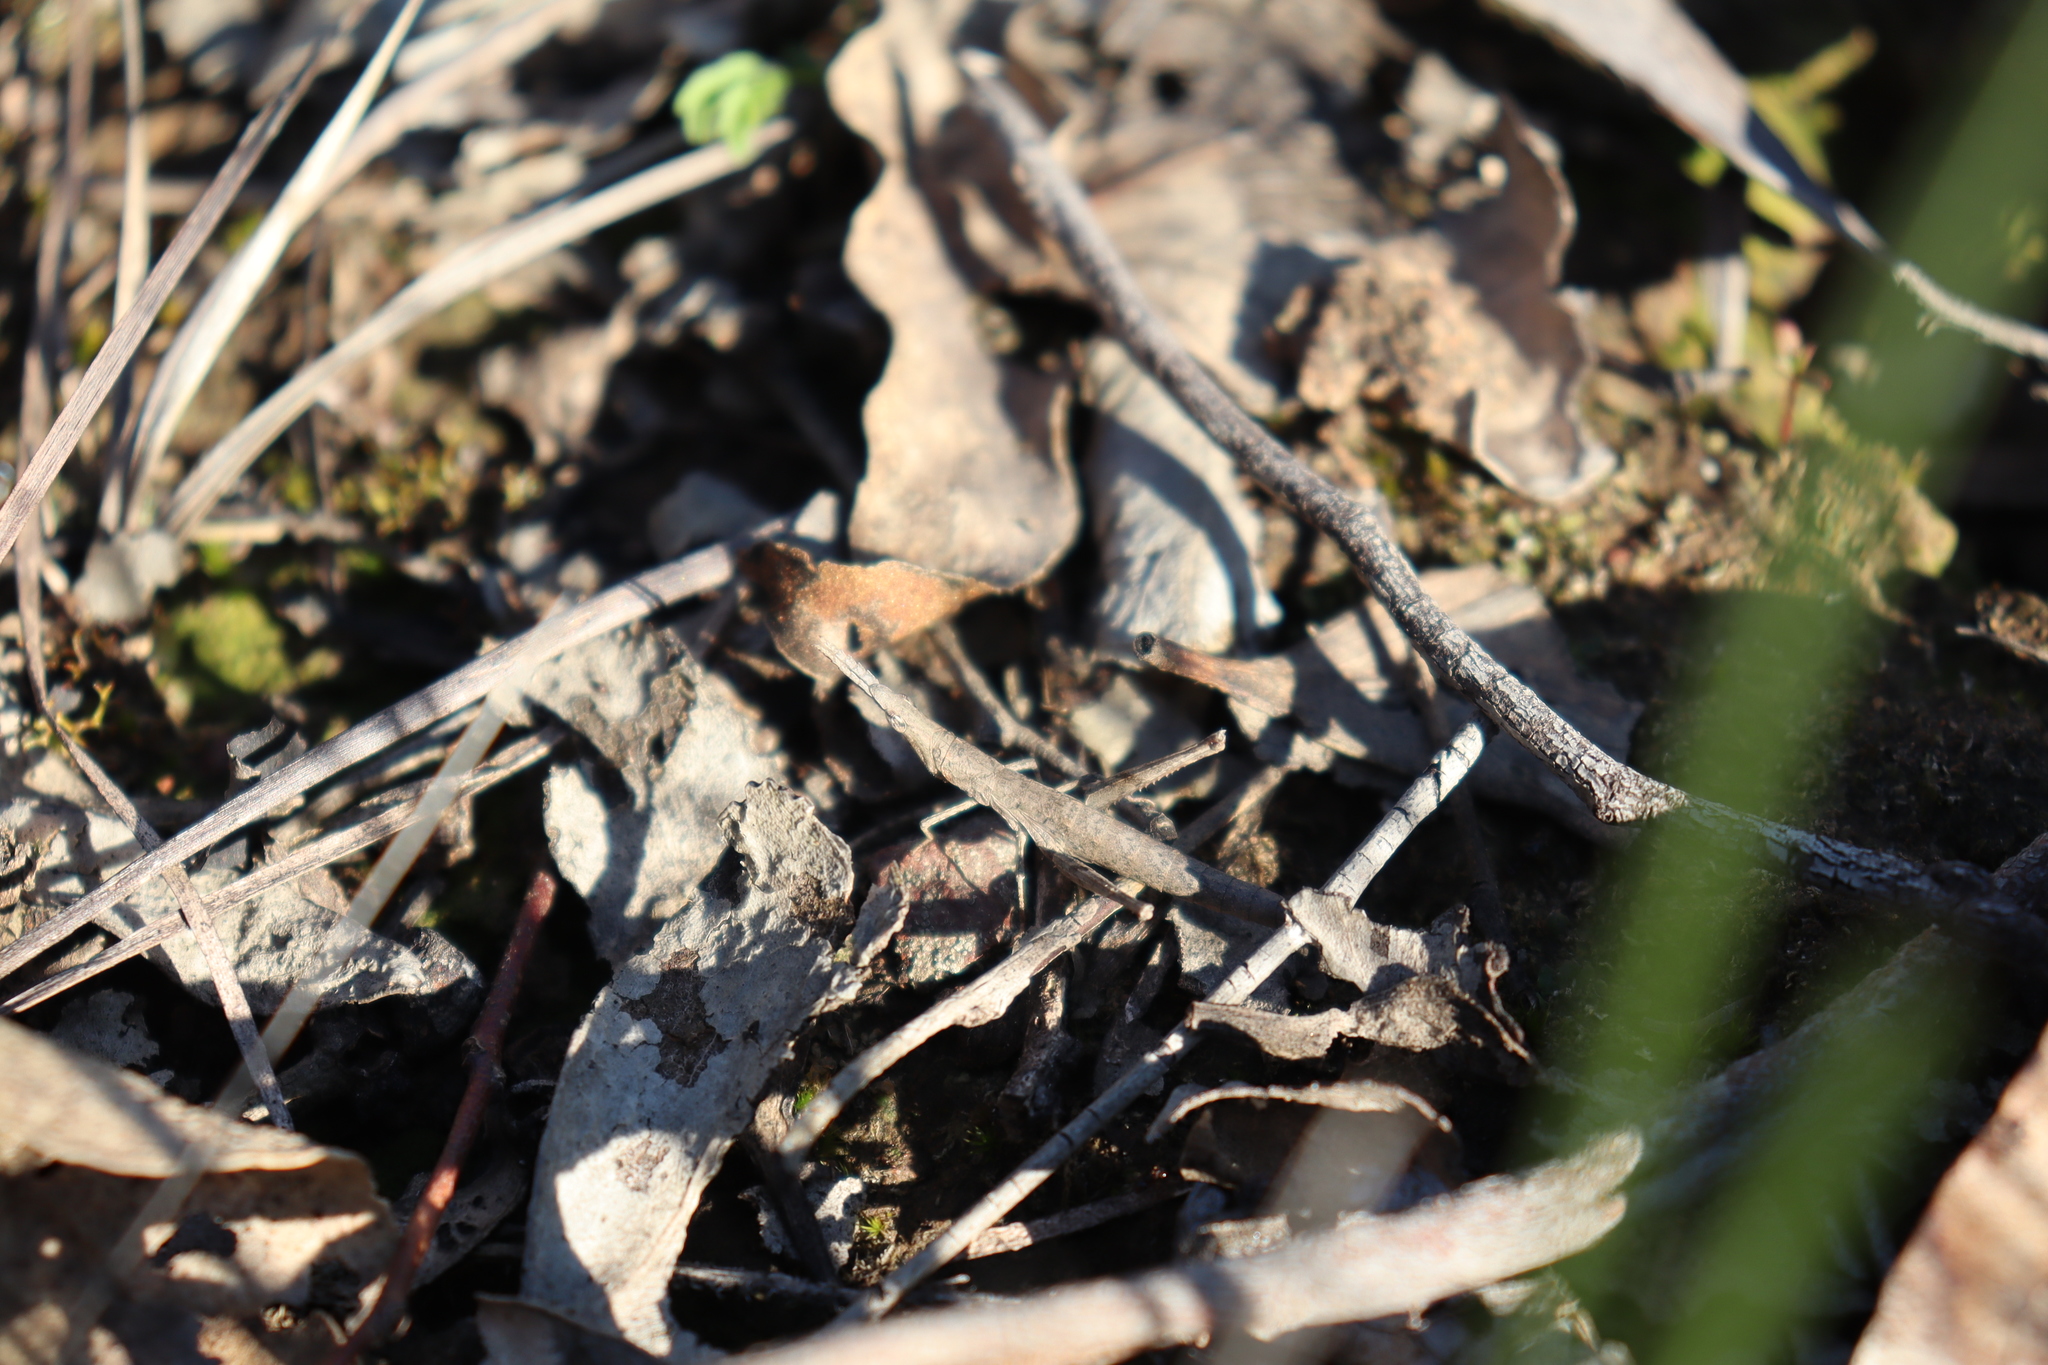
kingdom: Animalia
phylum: Arthropoda
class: Insecta
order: Orthoptera
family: Morabidae
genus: Vandiemenella
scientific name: Vandiemenella viatica
